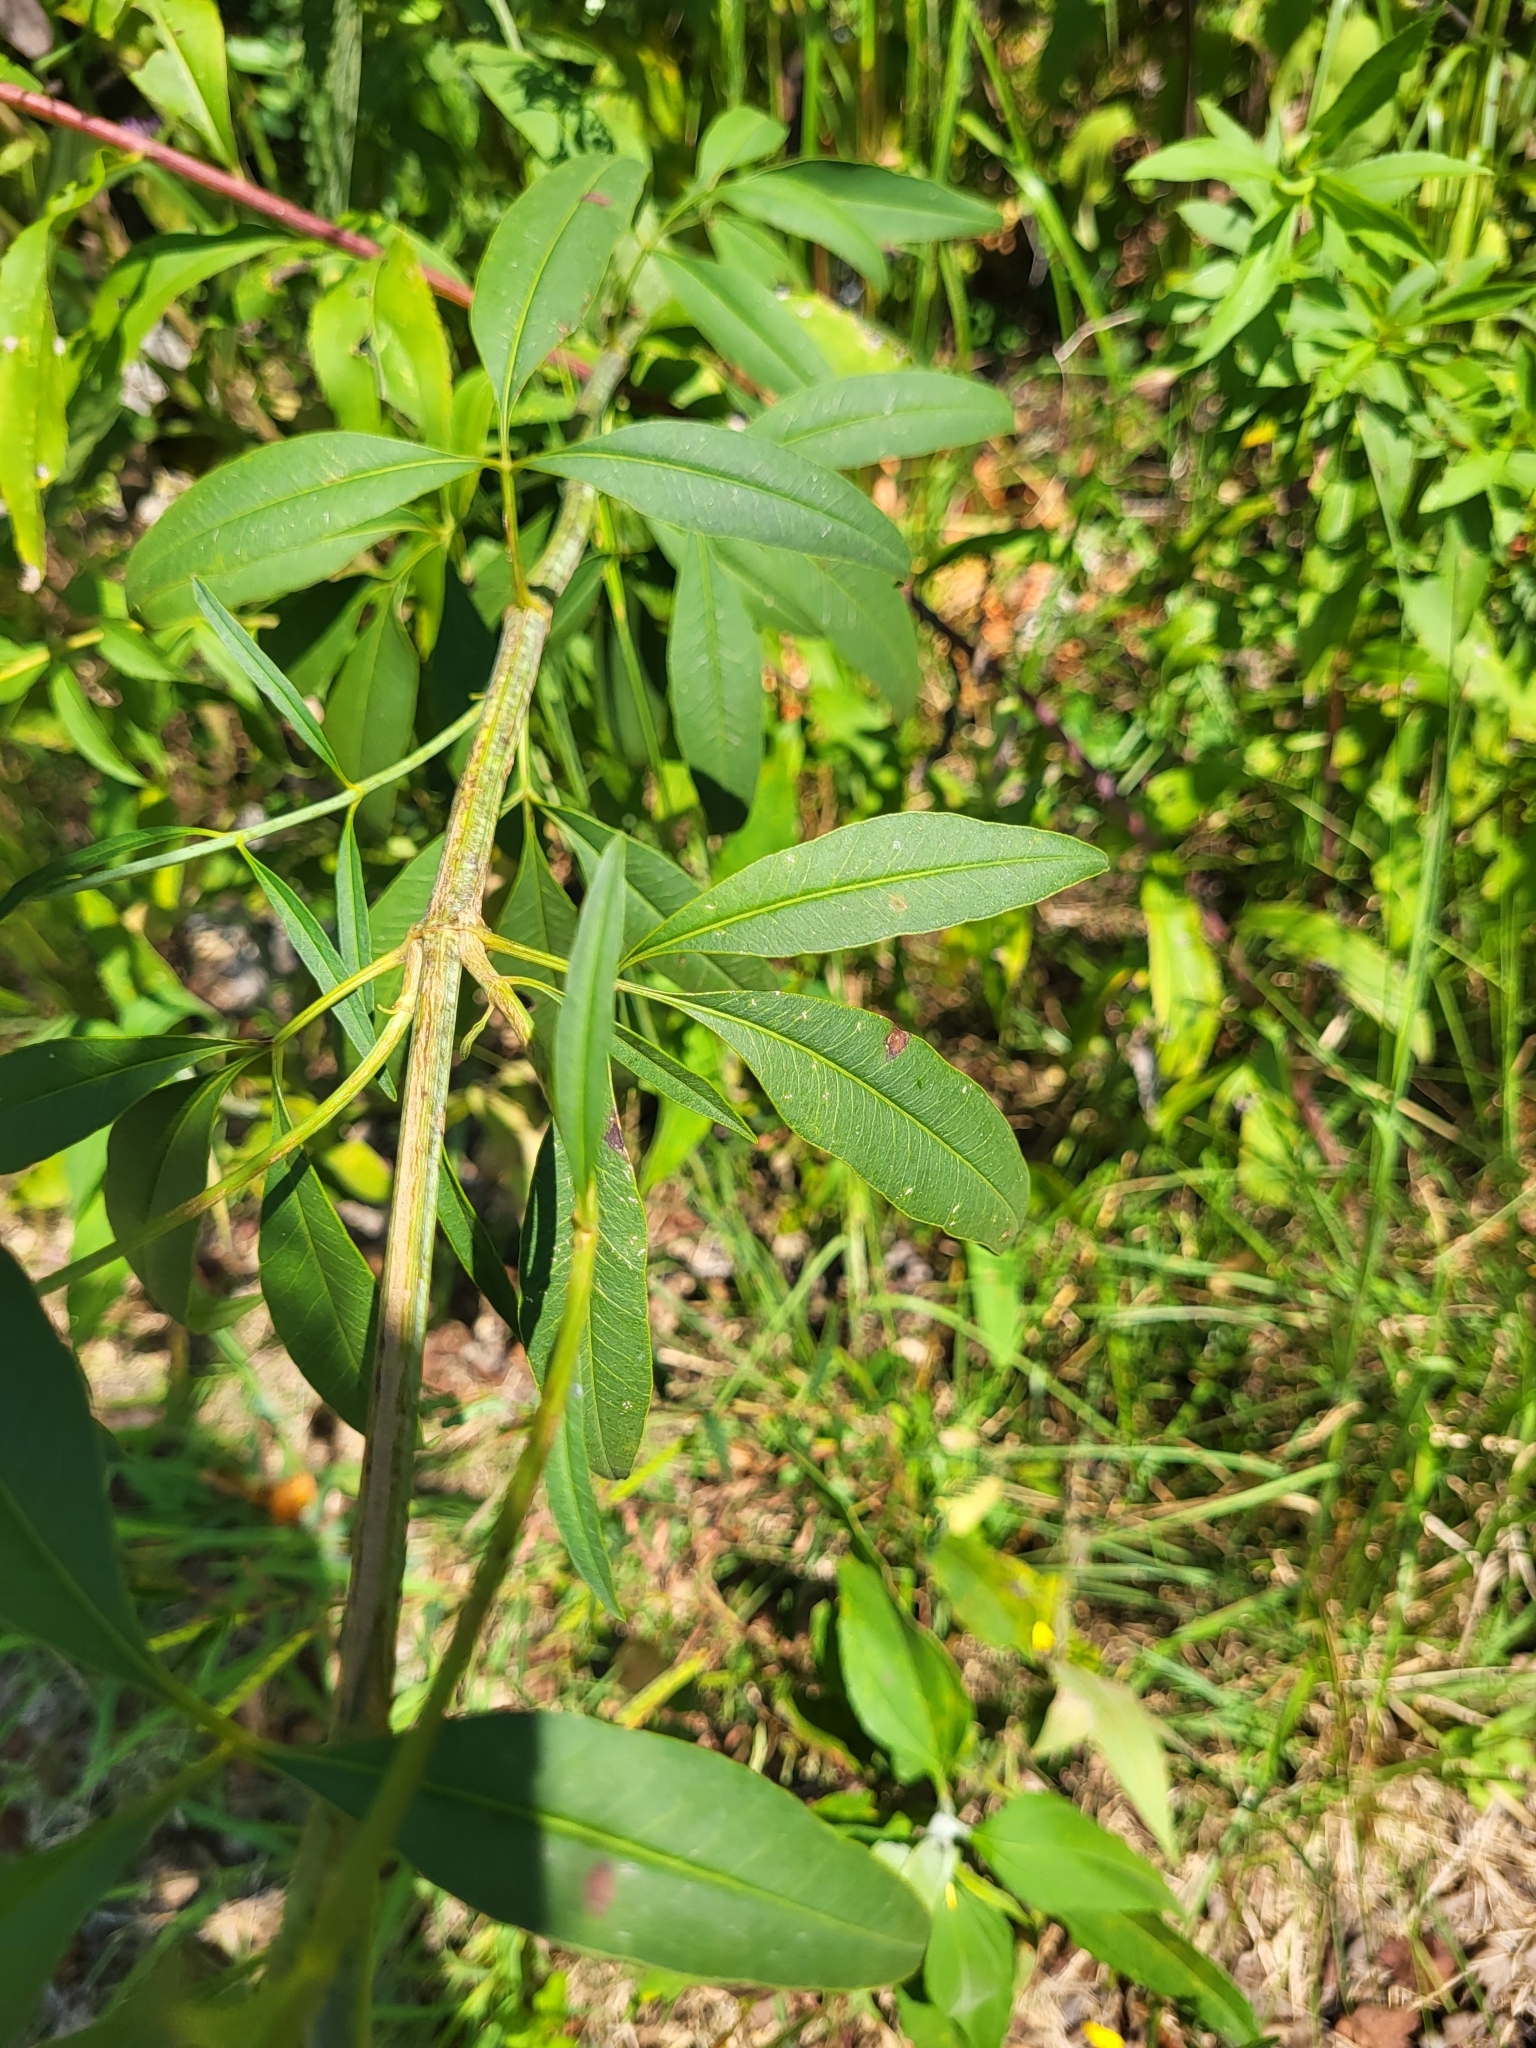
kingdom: Plantae
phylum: Tracheophyta
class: Magnoliopsida
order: Asterales
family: Asteraceae
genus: Coreopsis
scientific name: Coreopsis tripteris
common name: Tall coreopsis
